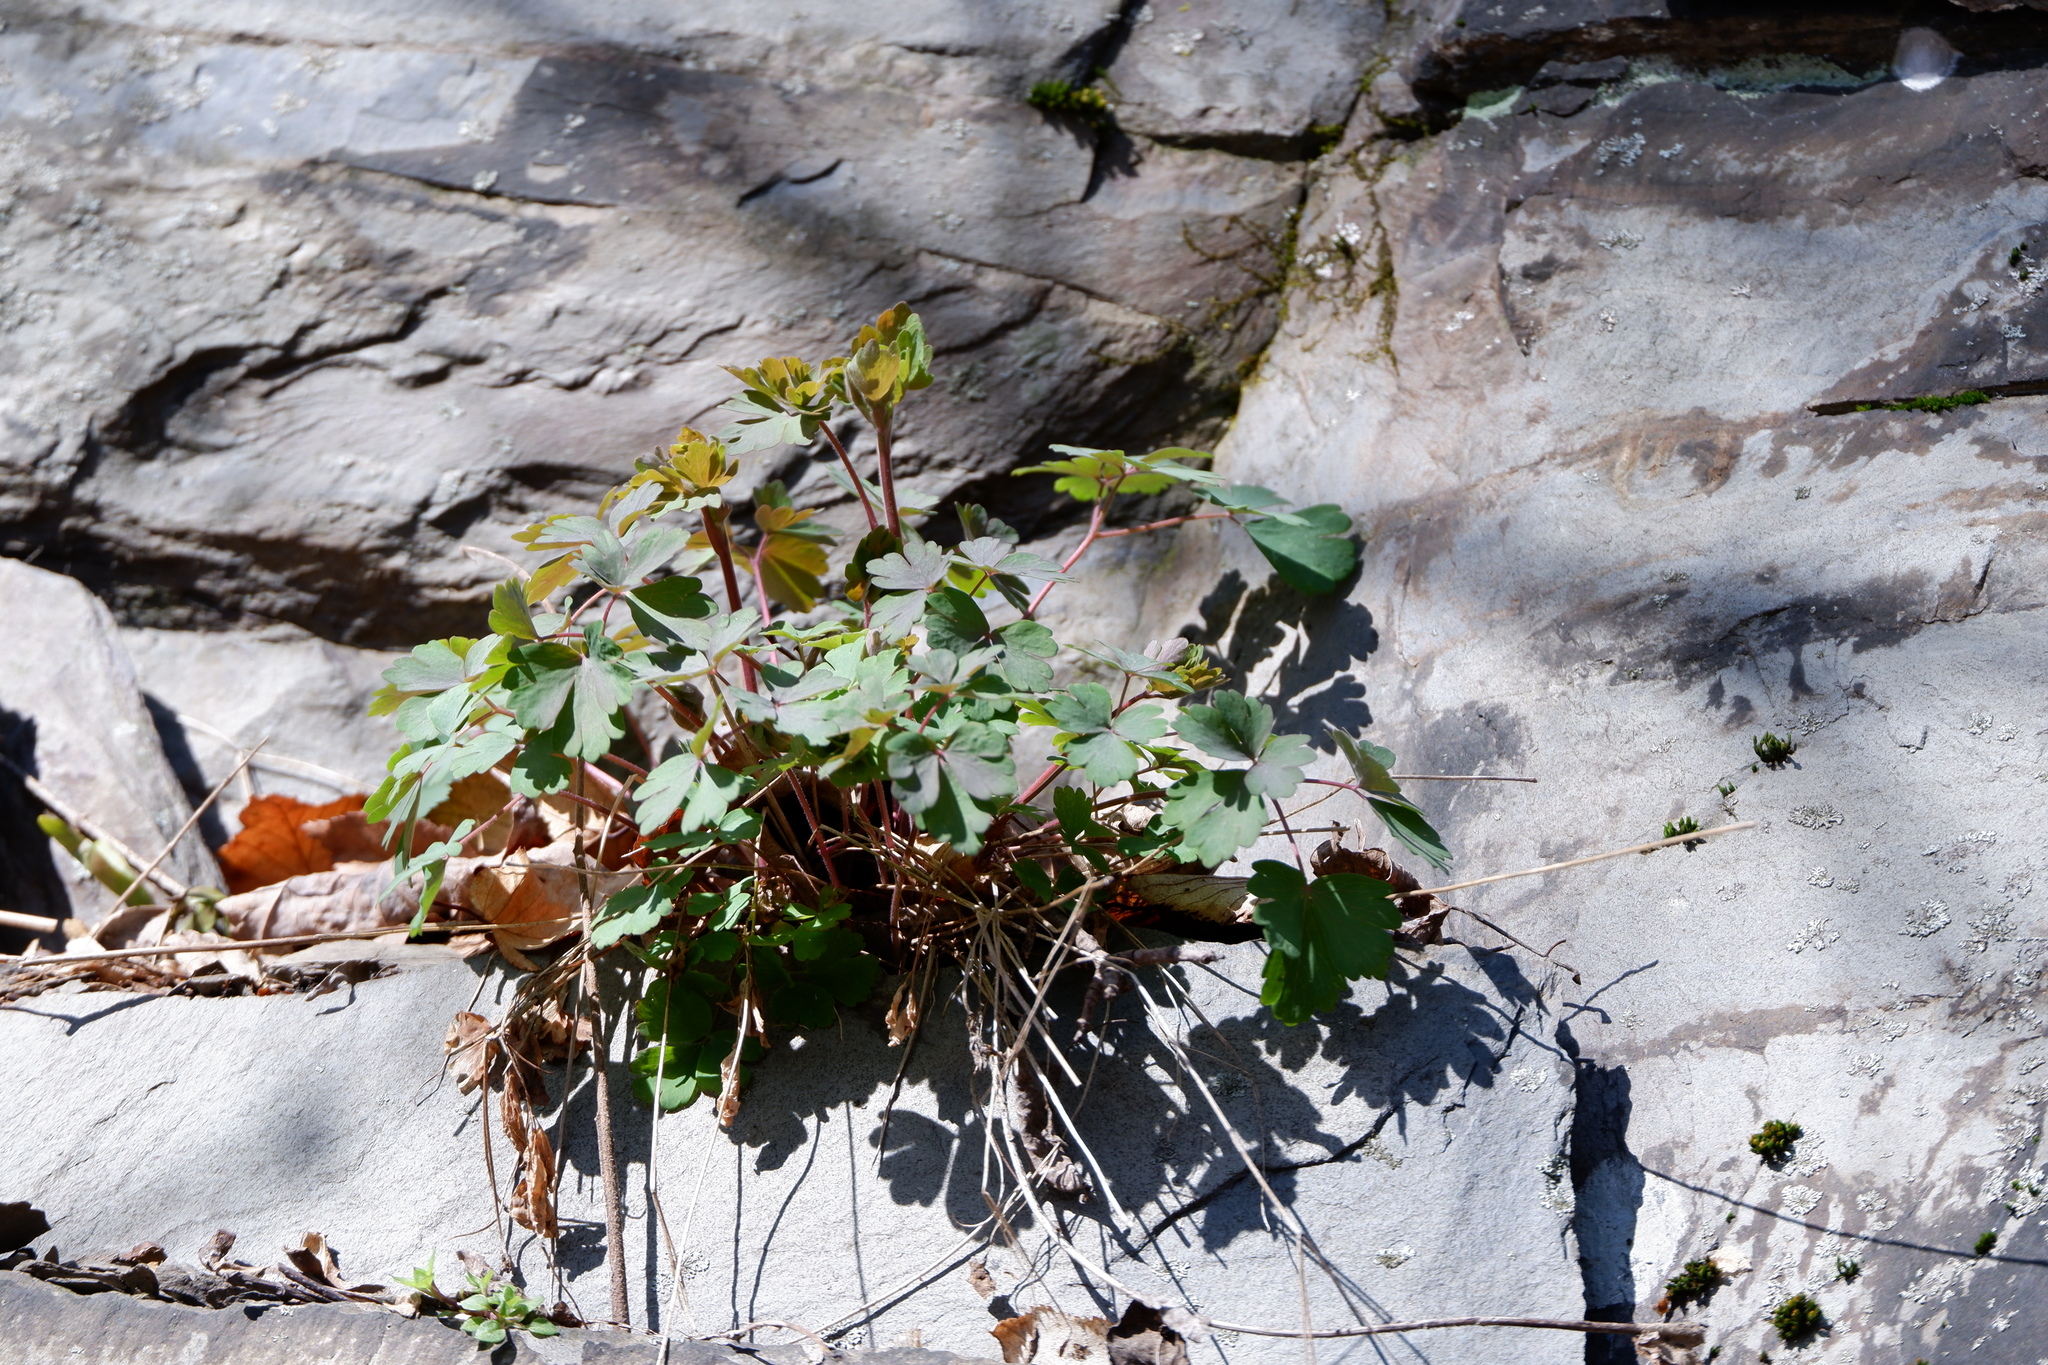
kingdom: Plantae
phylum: Tracheophyta
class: Magnoliopsida
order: Ranunculales
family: Ranunculaceae
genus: Aquilegia
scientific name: Aquilegia canadensis
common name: American columbine
